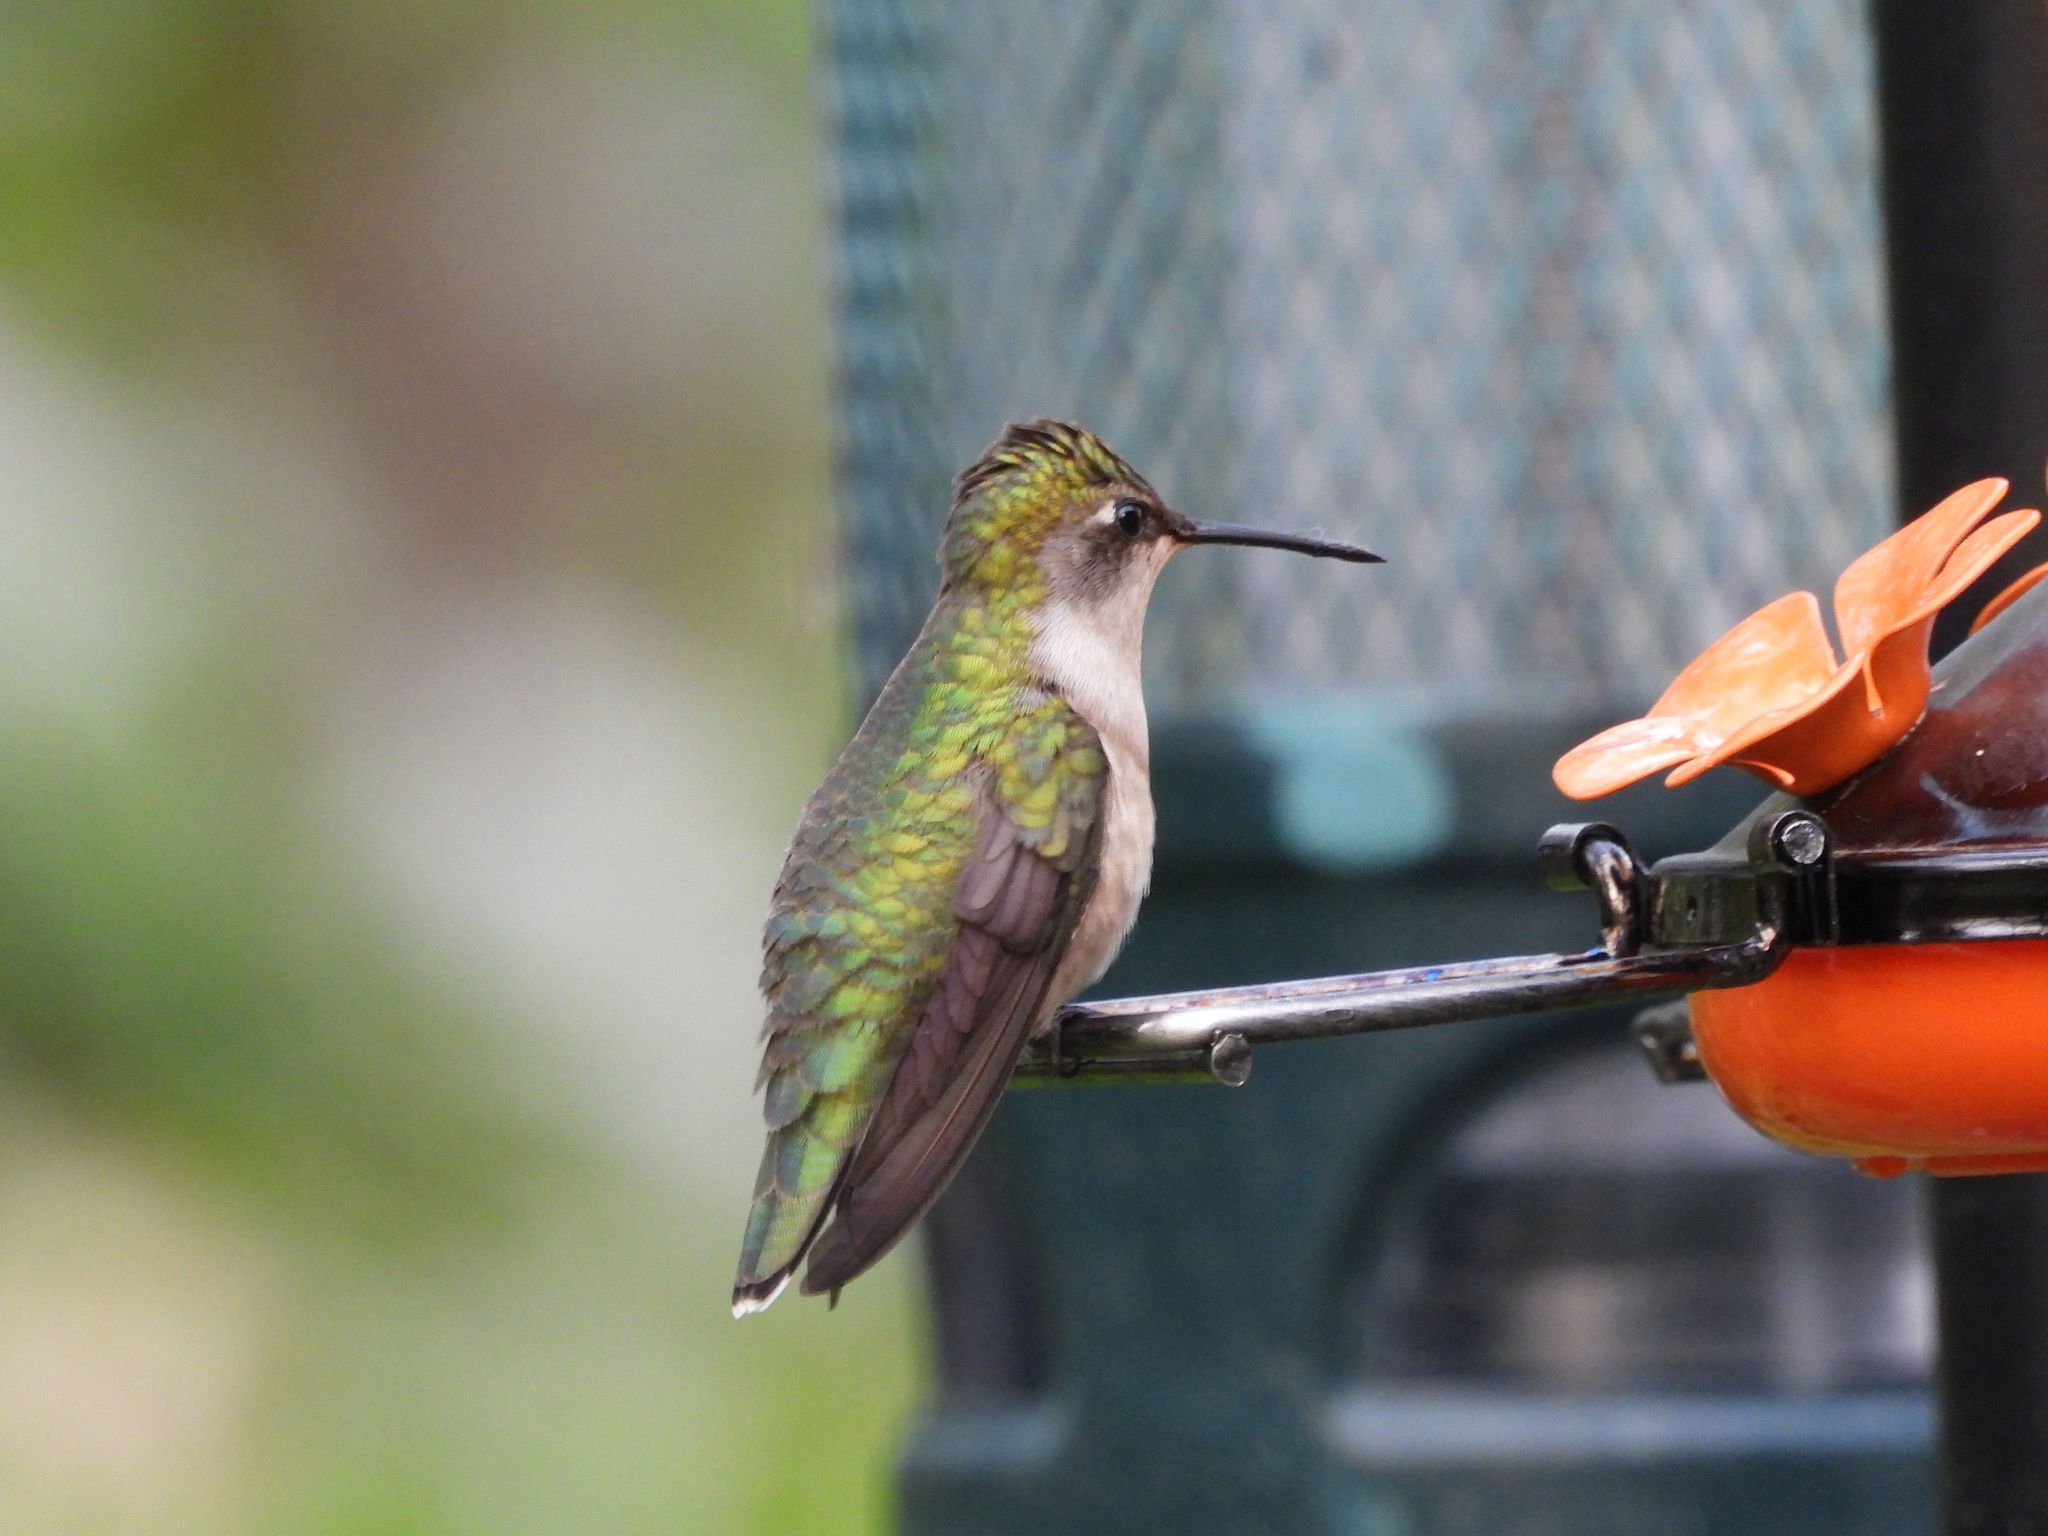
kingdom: Animalia
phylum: Chordata
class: Aves
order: Apodiformes
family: Trochilidae
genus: Archilochus
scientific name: Archilochus colubris
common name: Ruby-throated hummingbird
